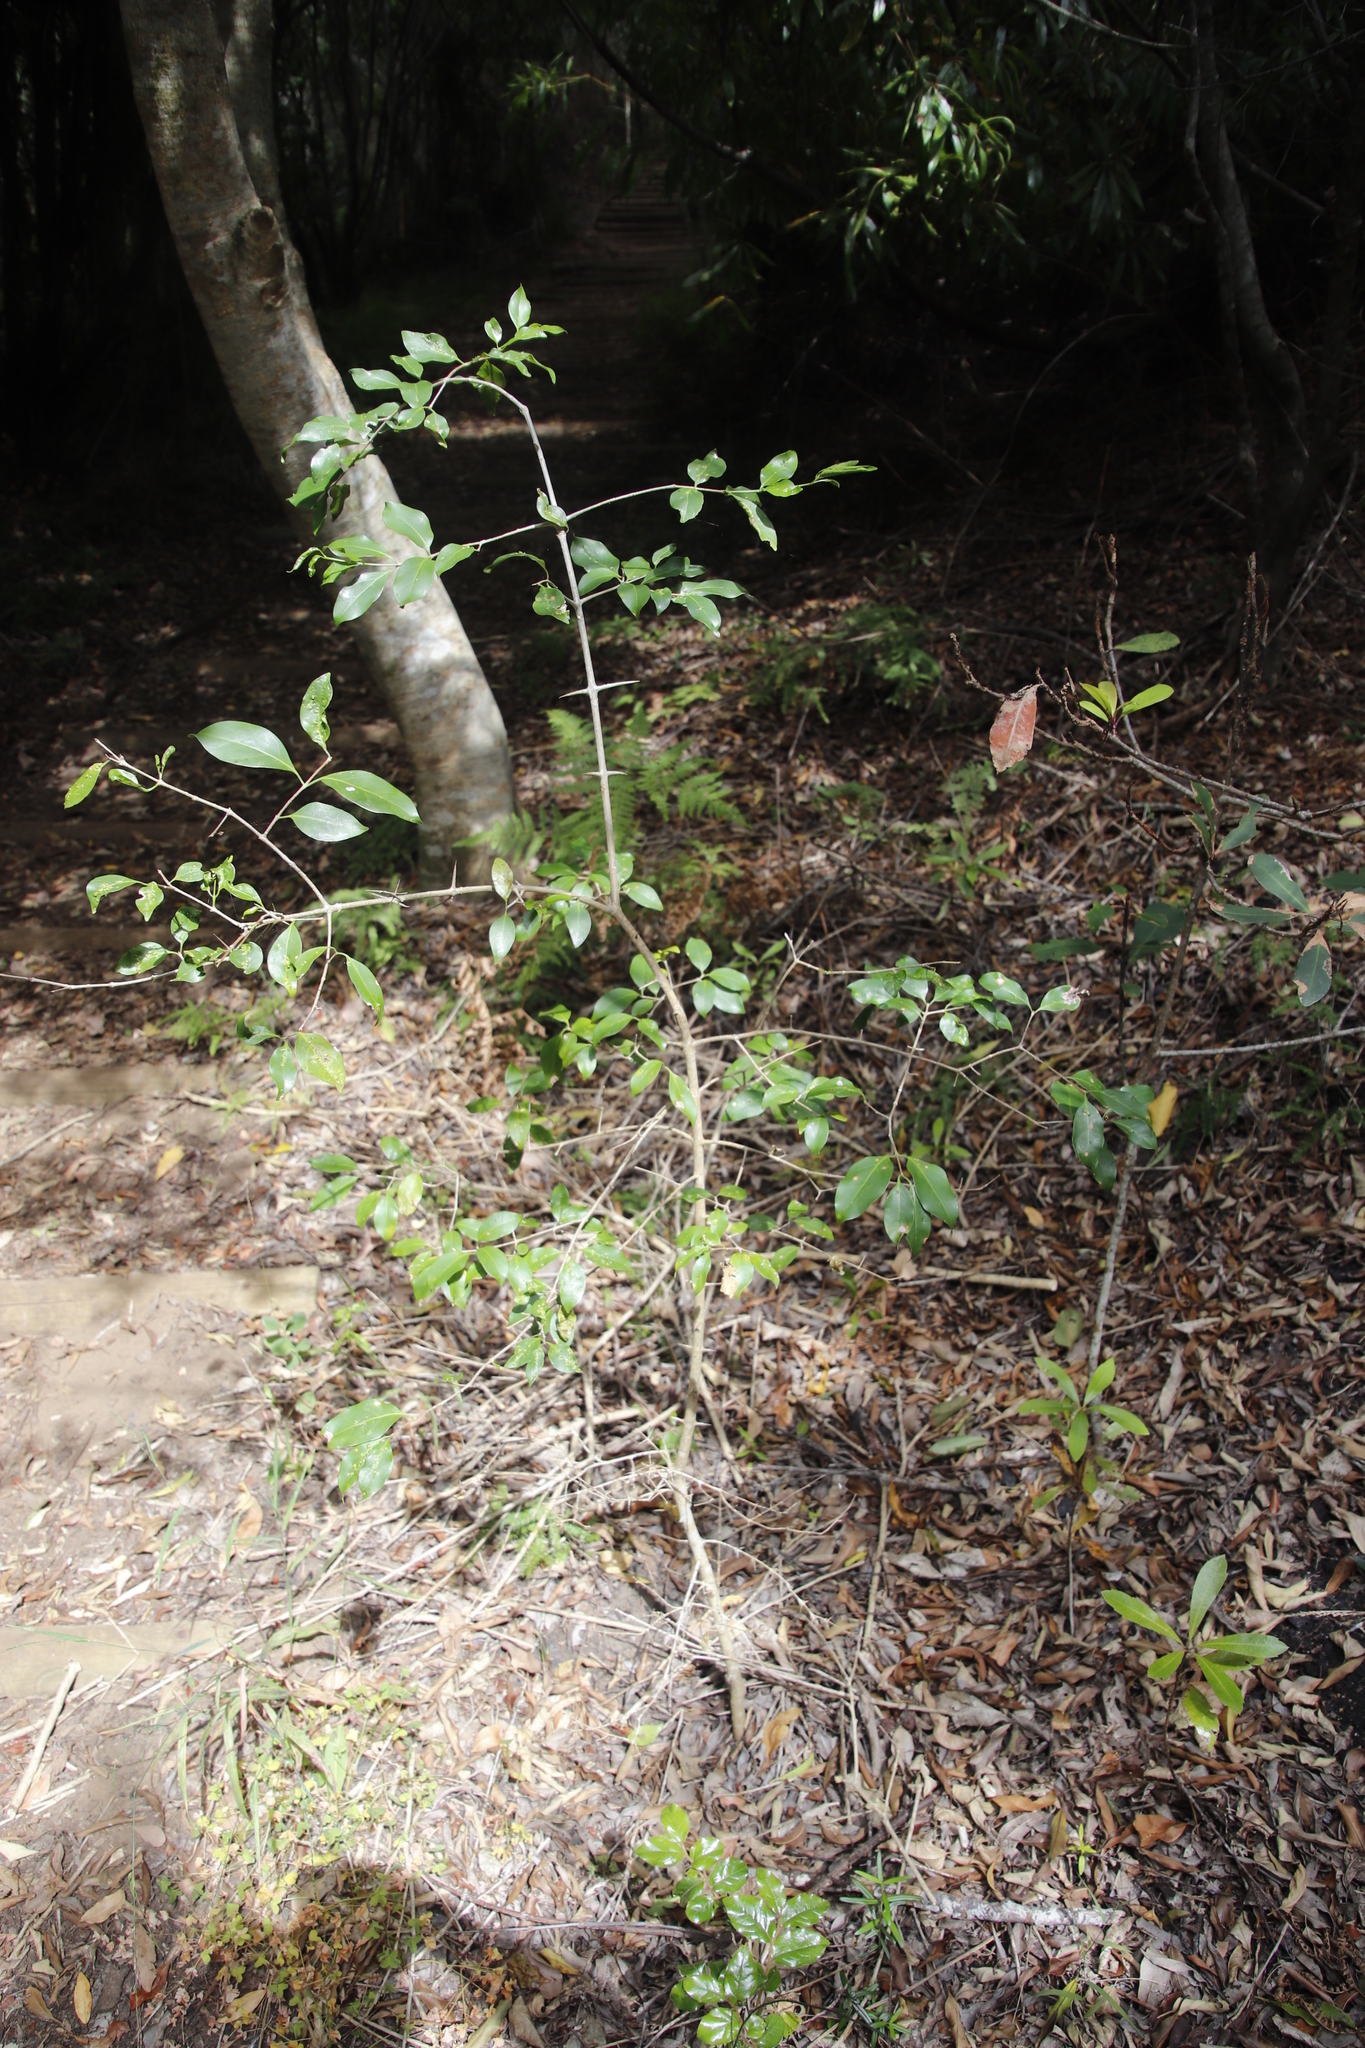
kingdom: Plantae
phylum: Tracheophyta
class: Magnoliopsida
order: Gentianales
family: Rubiaceae
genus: Canthium
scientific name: Canthium inerme
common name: Unarmed turkey-berry
